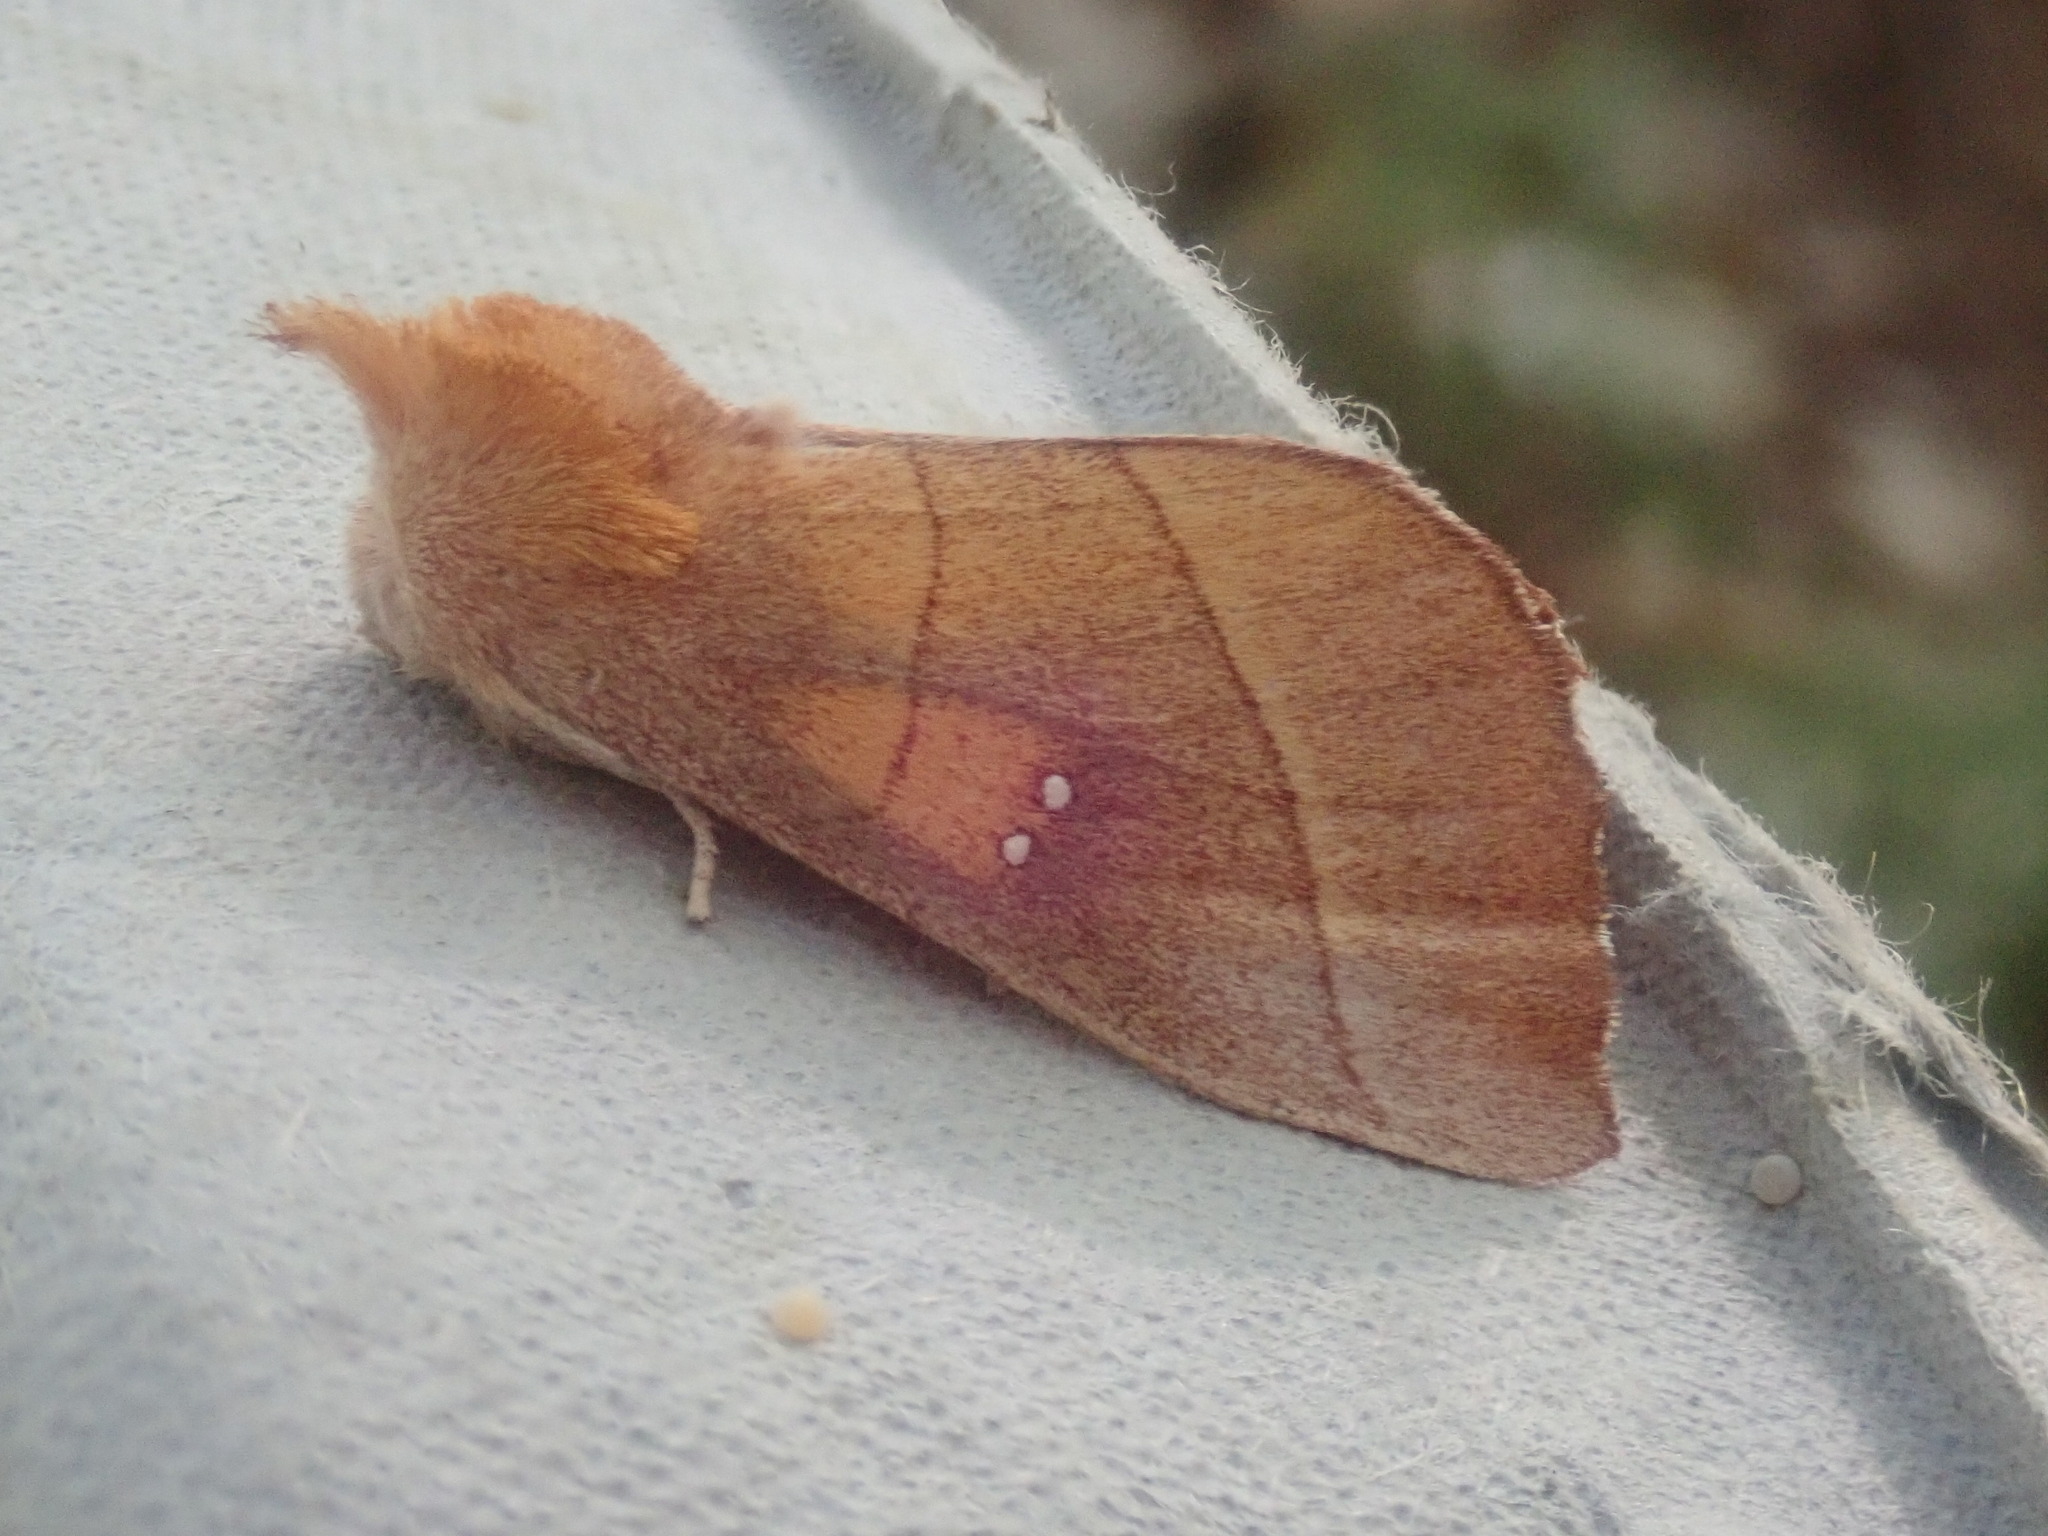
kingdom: Animalia
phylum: Arthropoda
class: Insecta
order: Lepidoptera
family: Notodontidae
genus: Nadata
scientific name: Nadata gibbosa
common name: White-dotted prominent
